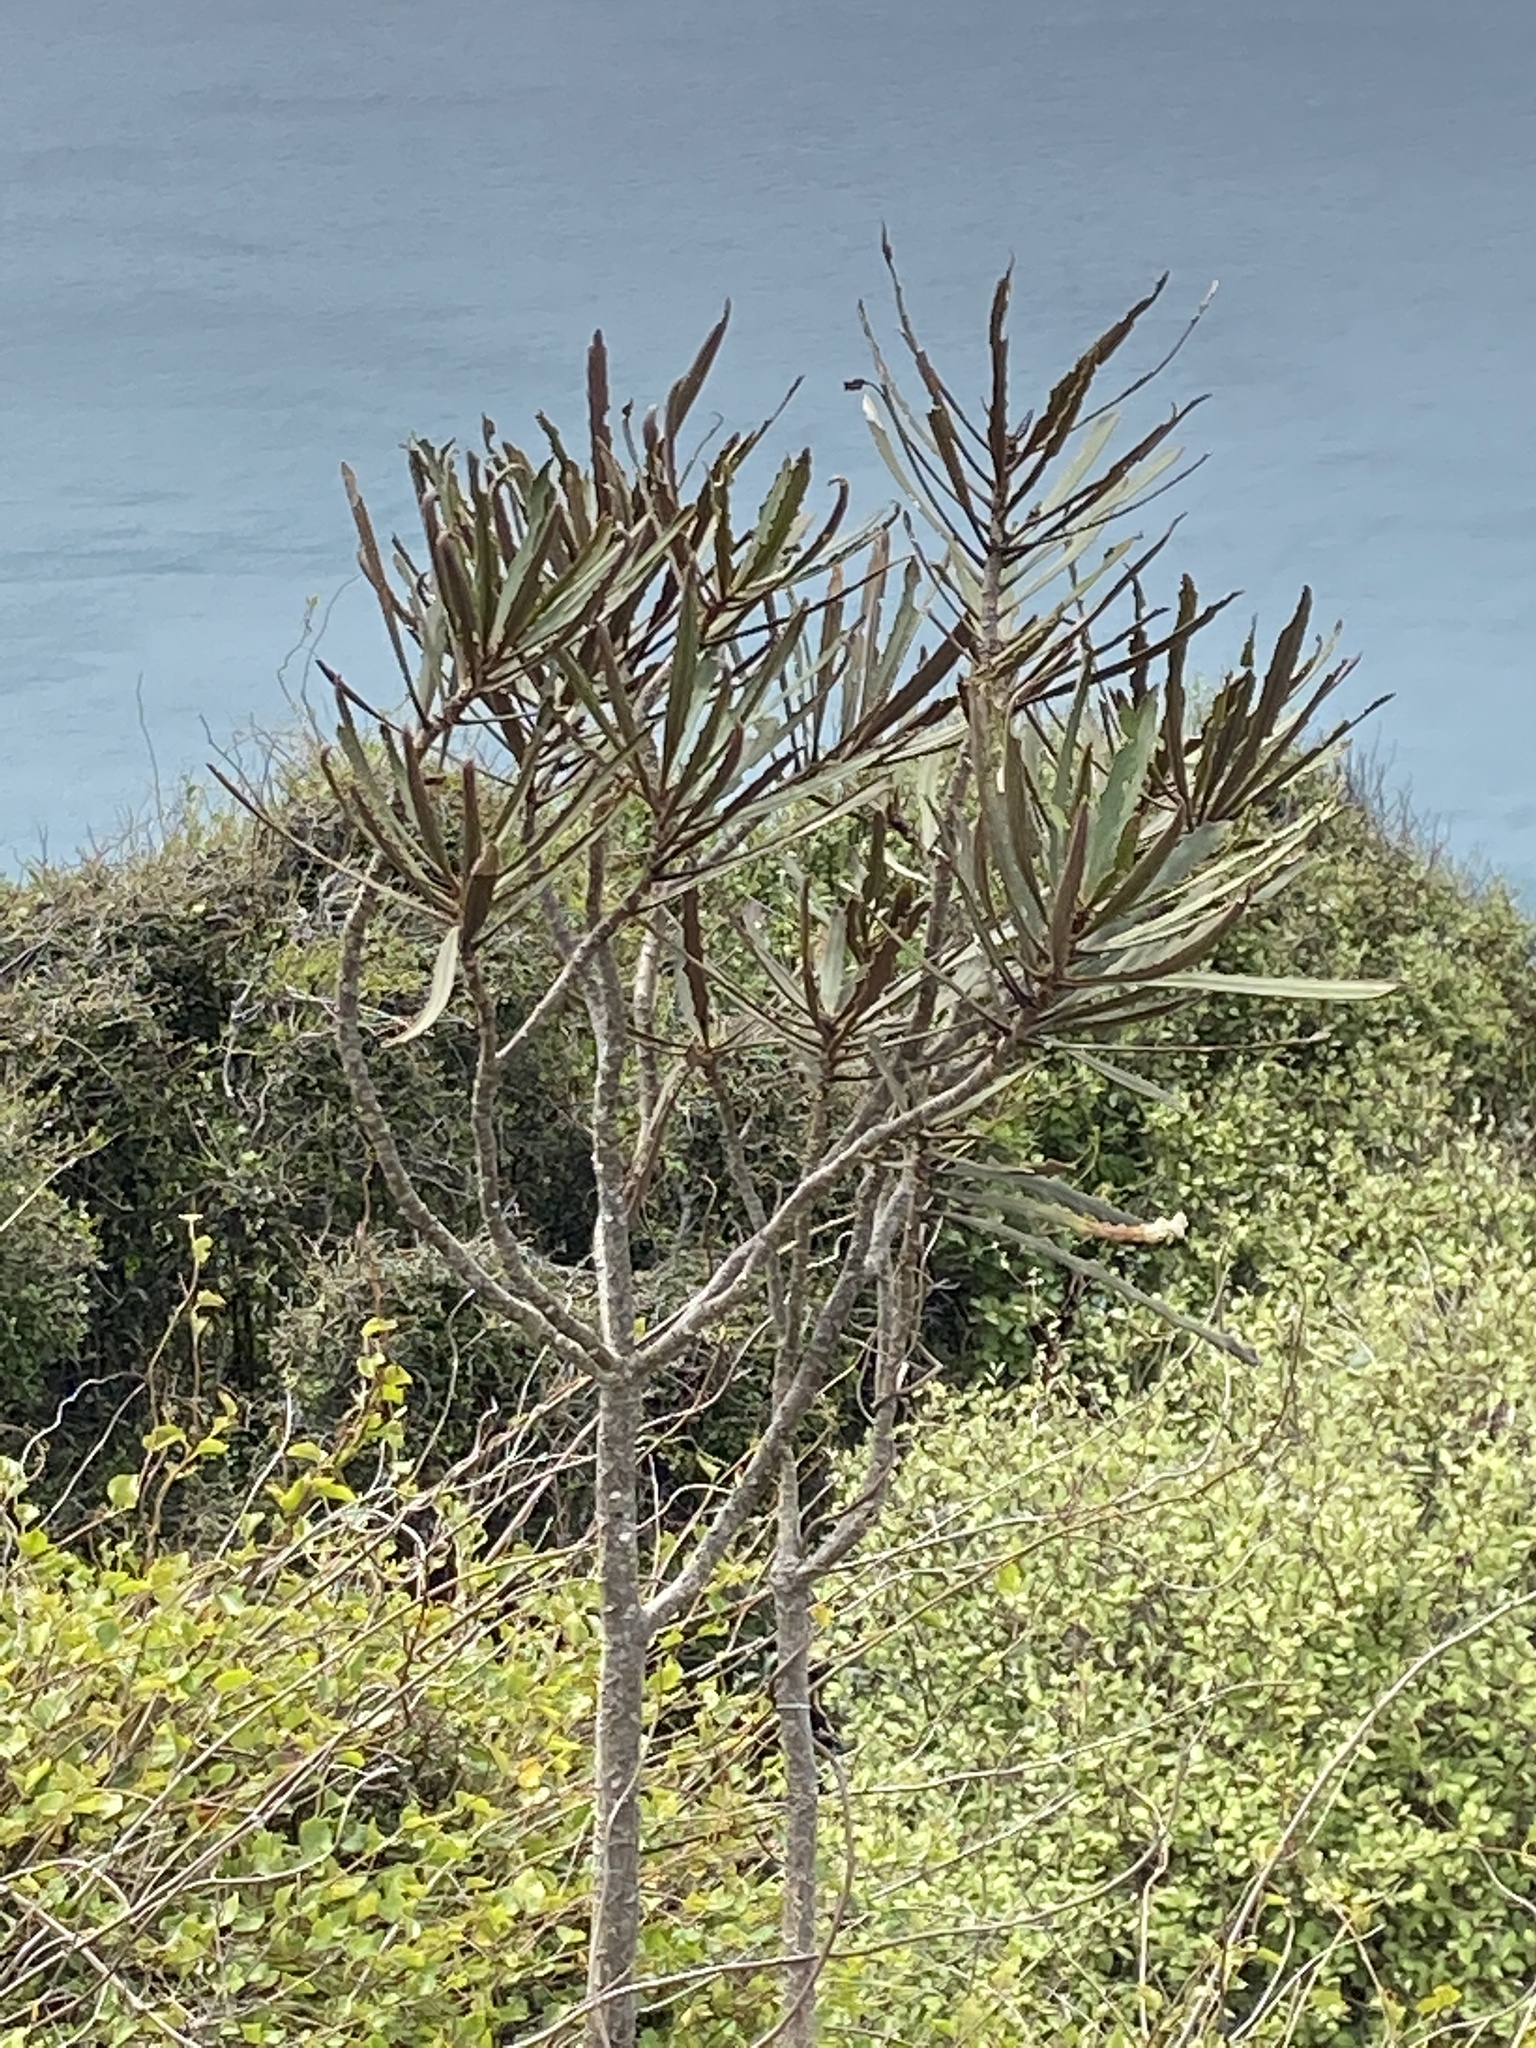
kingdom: Plantae
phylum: Tracheophyta
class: Magnoliopsida
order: Apiales
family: Araliaceae
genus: Pseudopanax
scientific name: Pseudopanax ferox
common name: Fierce lancewood
